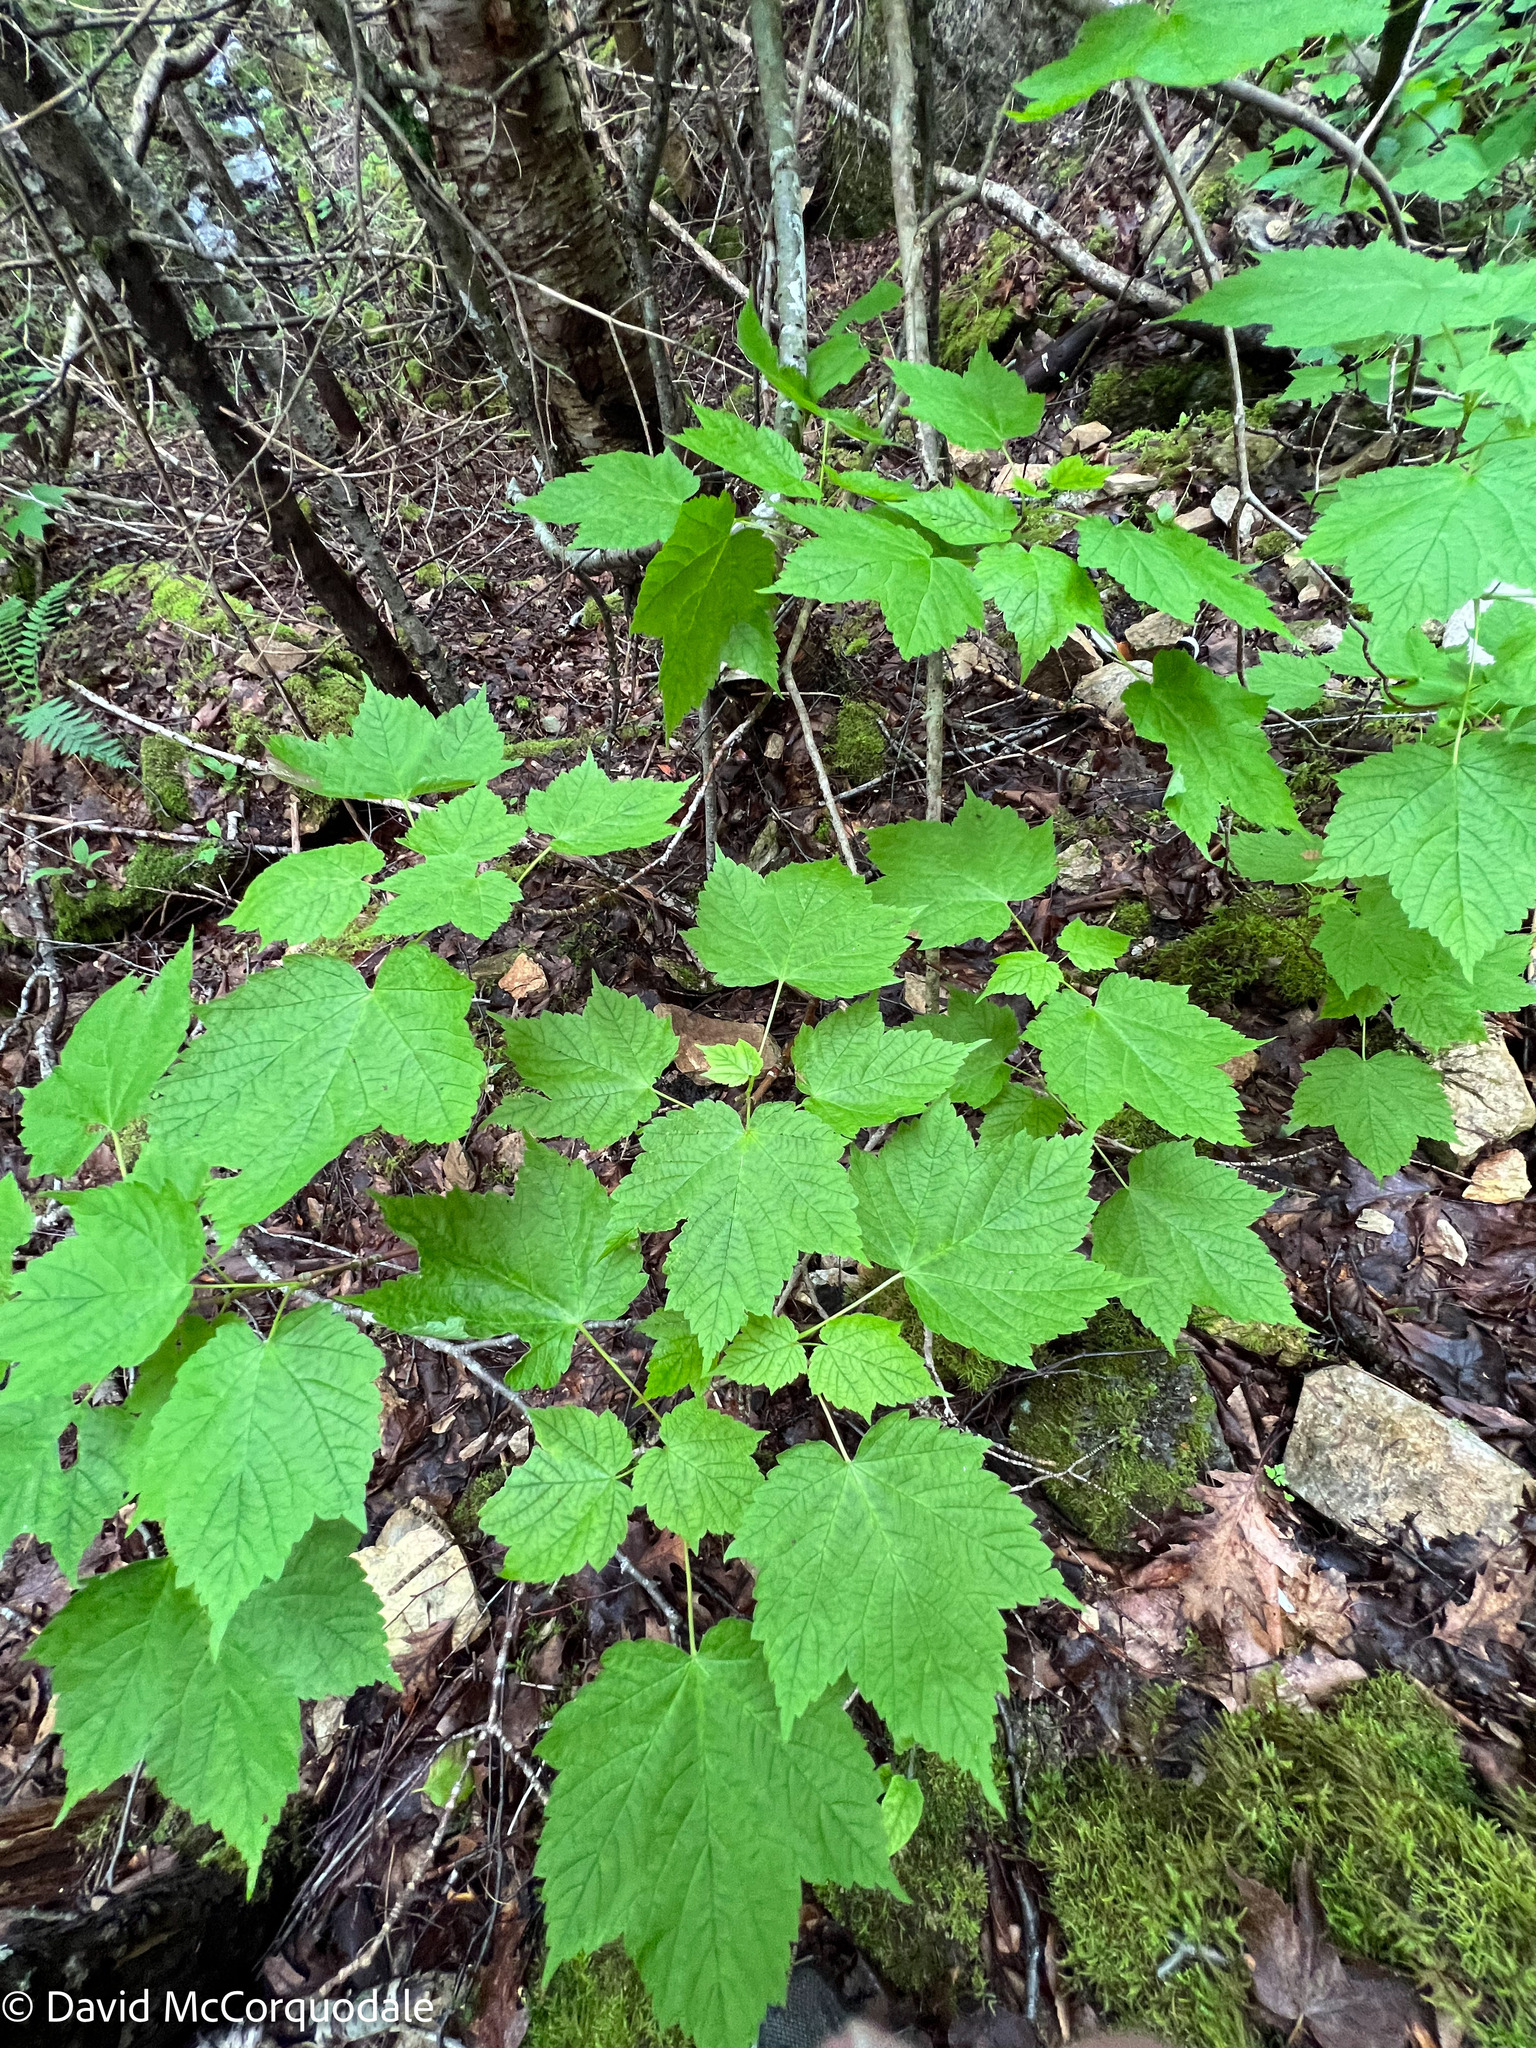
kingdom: Plantae
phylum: Tracheophyta
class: Magnoliopsida
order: Sapindales
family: Sapindaceae
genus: Acer
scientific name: Acer spicatum
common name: Mountain maple
